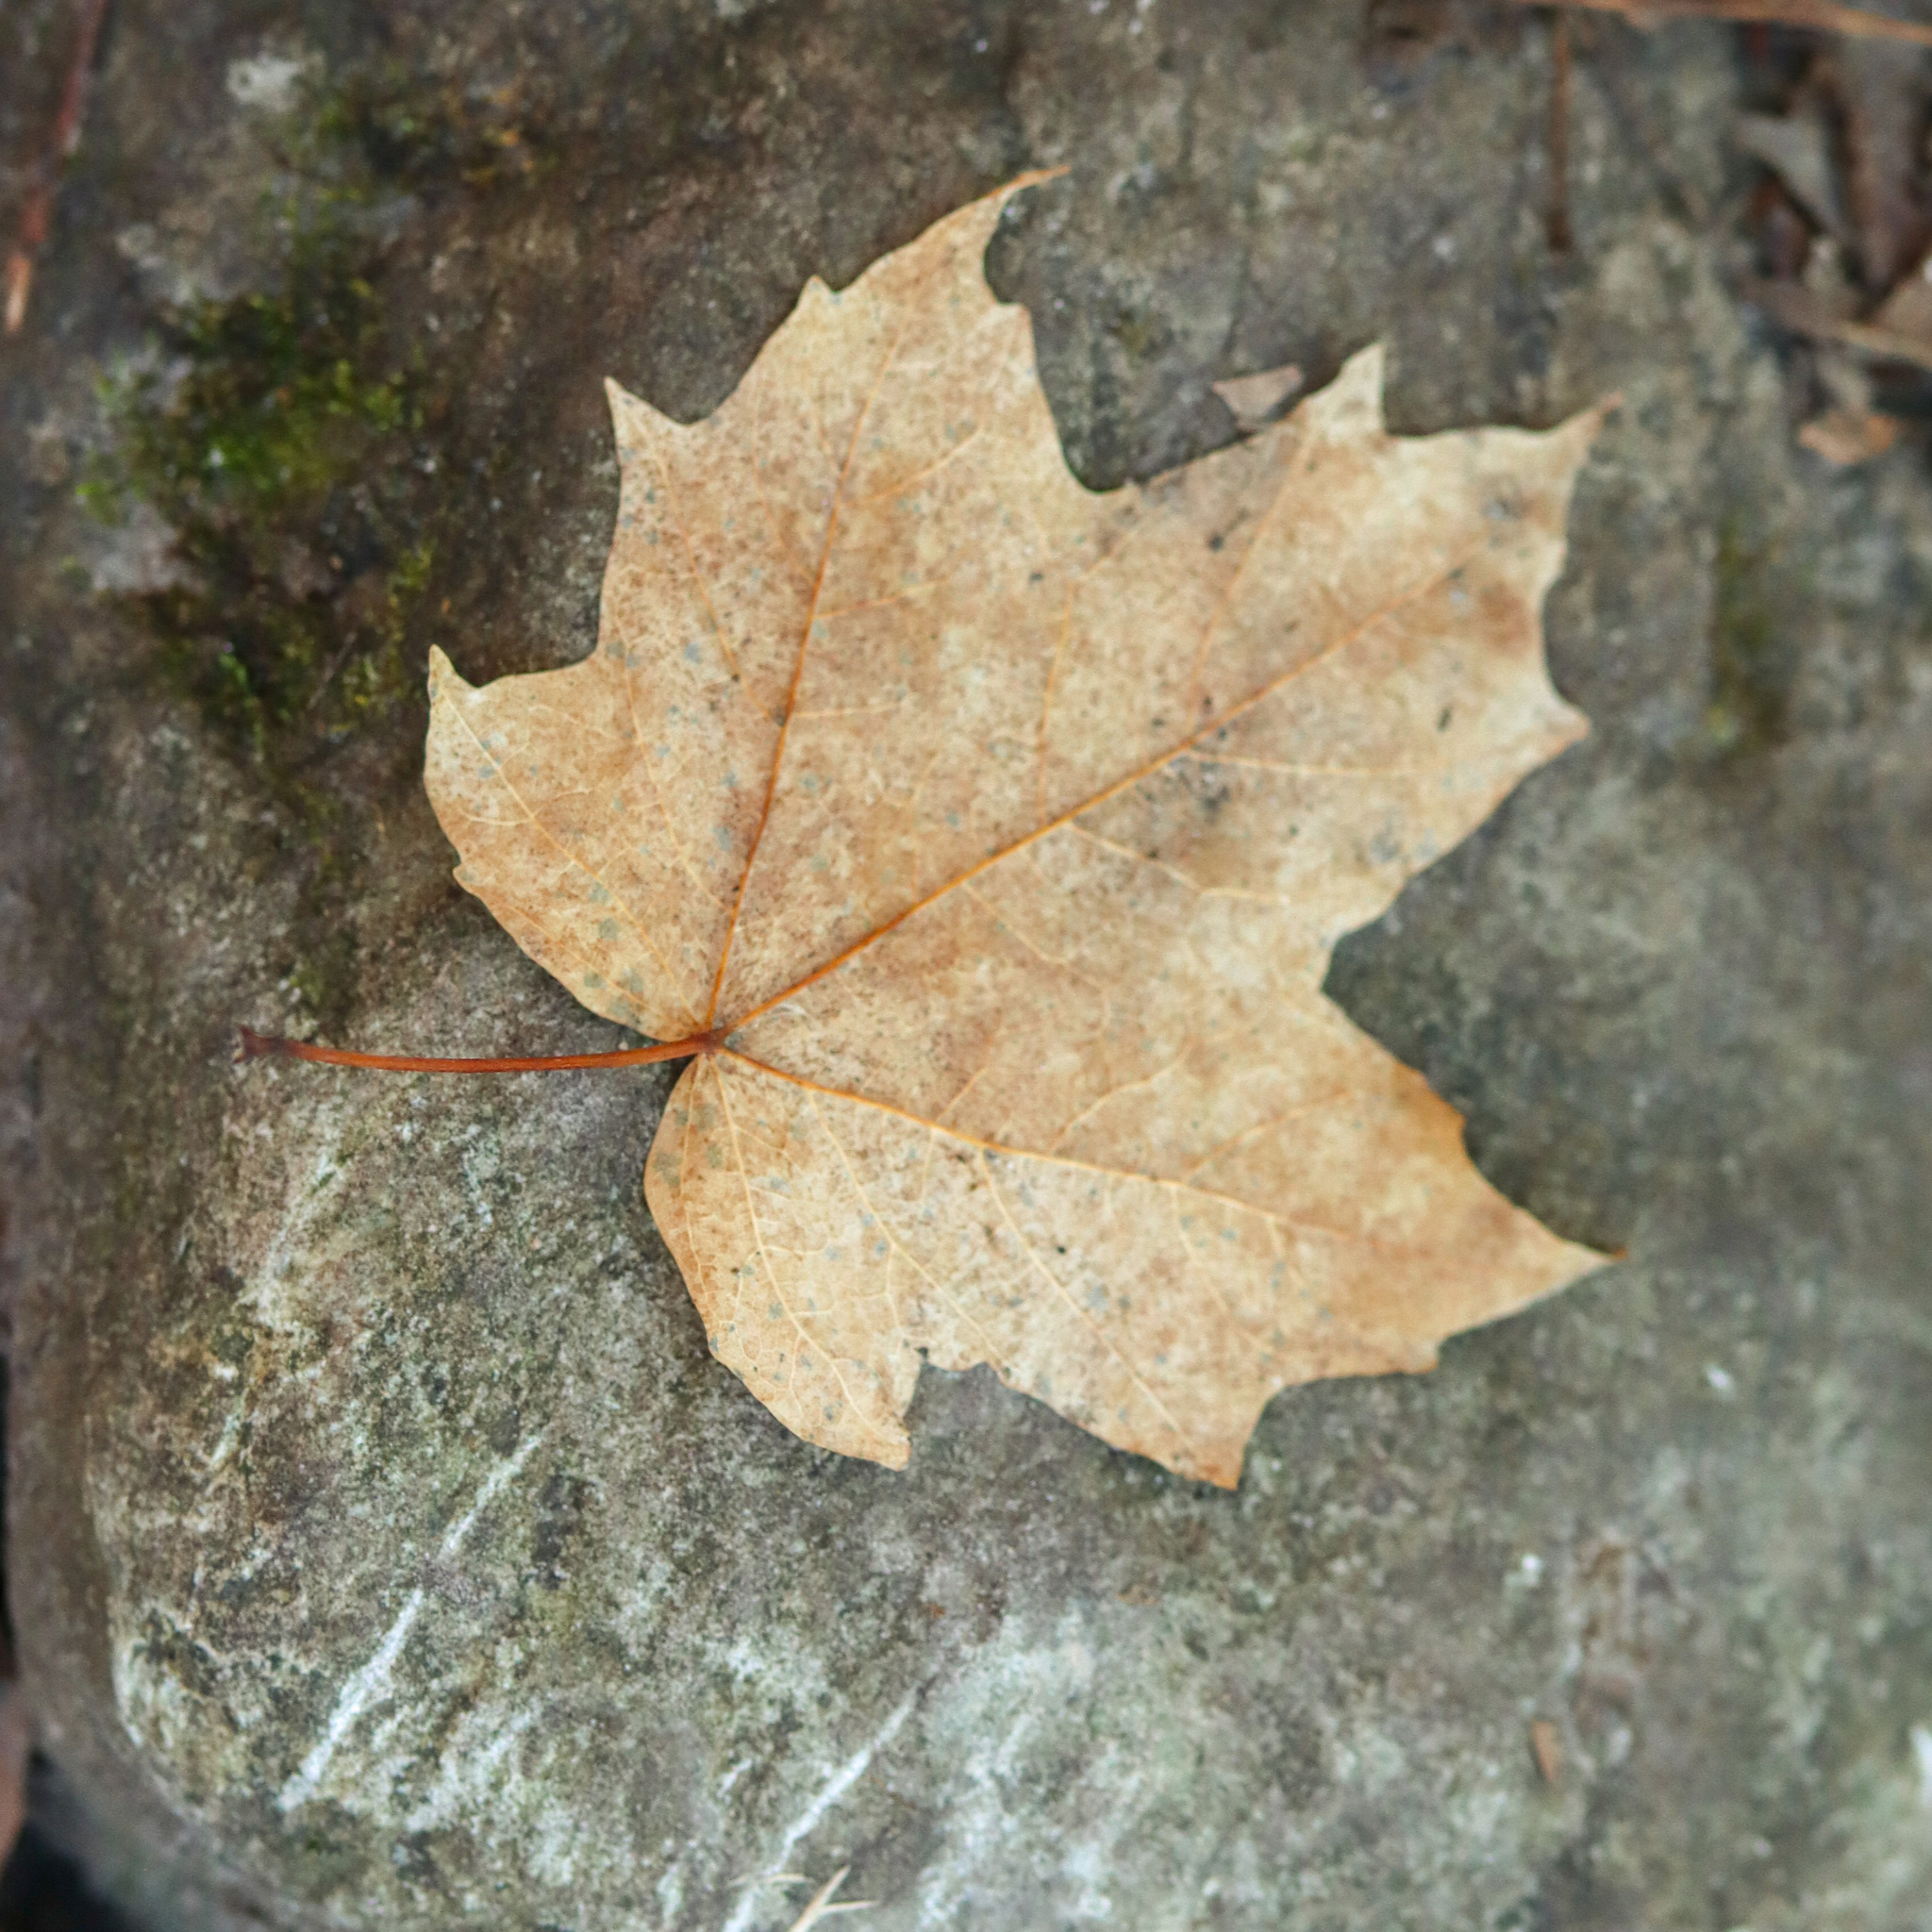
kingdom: Plantae
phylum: Tracheophyta
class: Magnoliopsida
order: Sapindales
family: Sapindaceae
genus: Acer
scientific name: Acer saccharum
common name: Sugar maple
